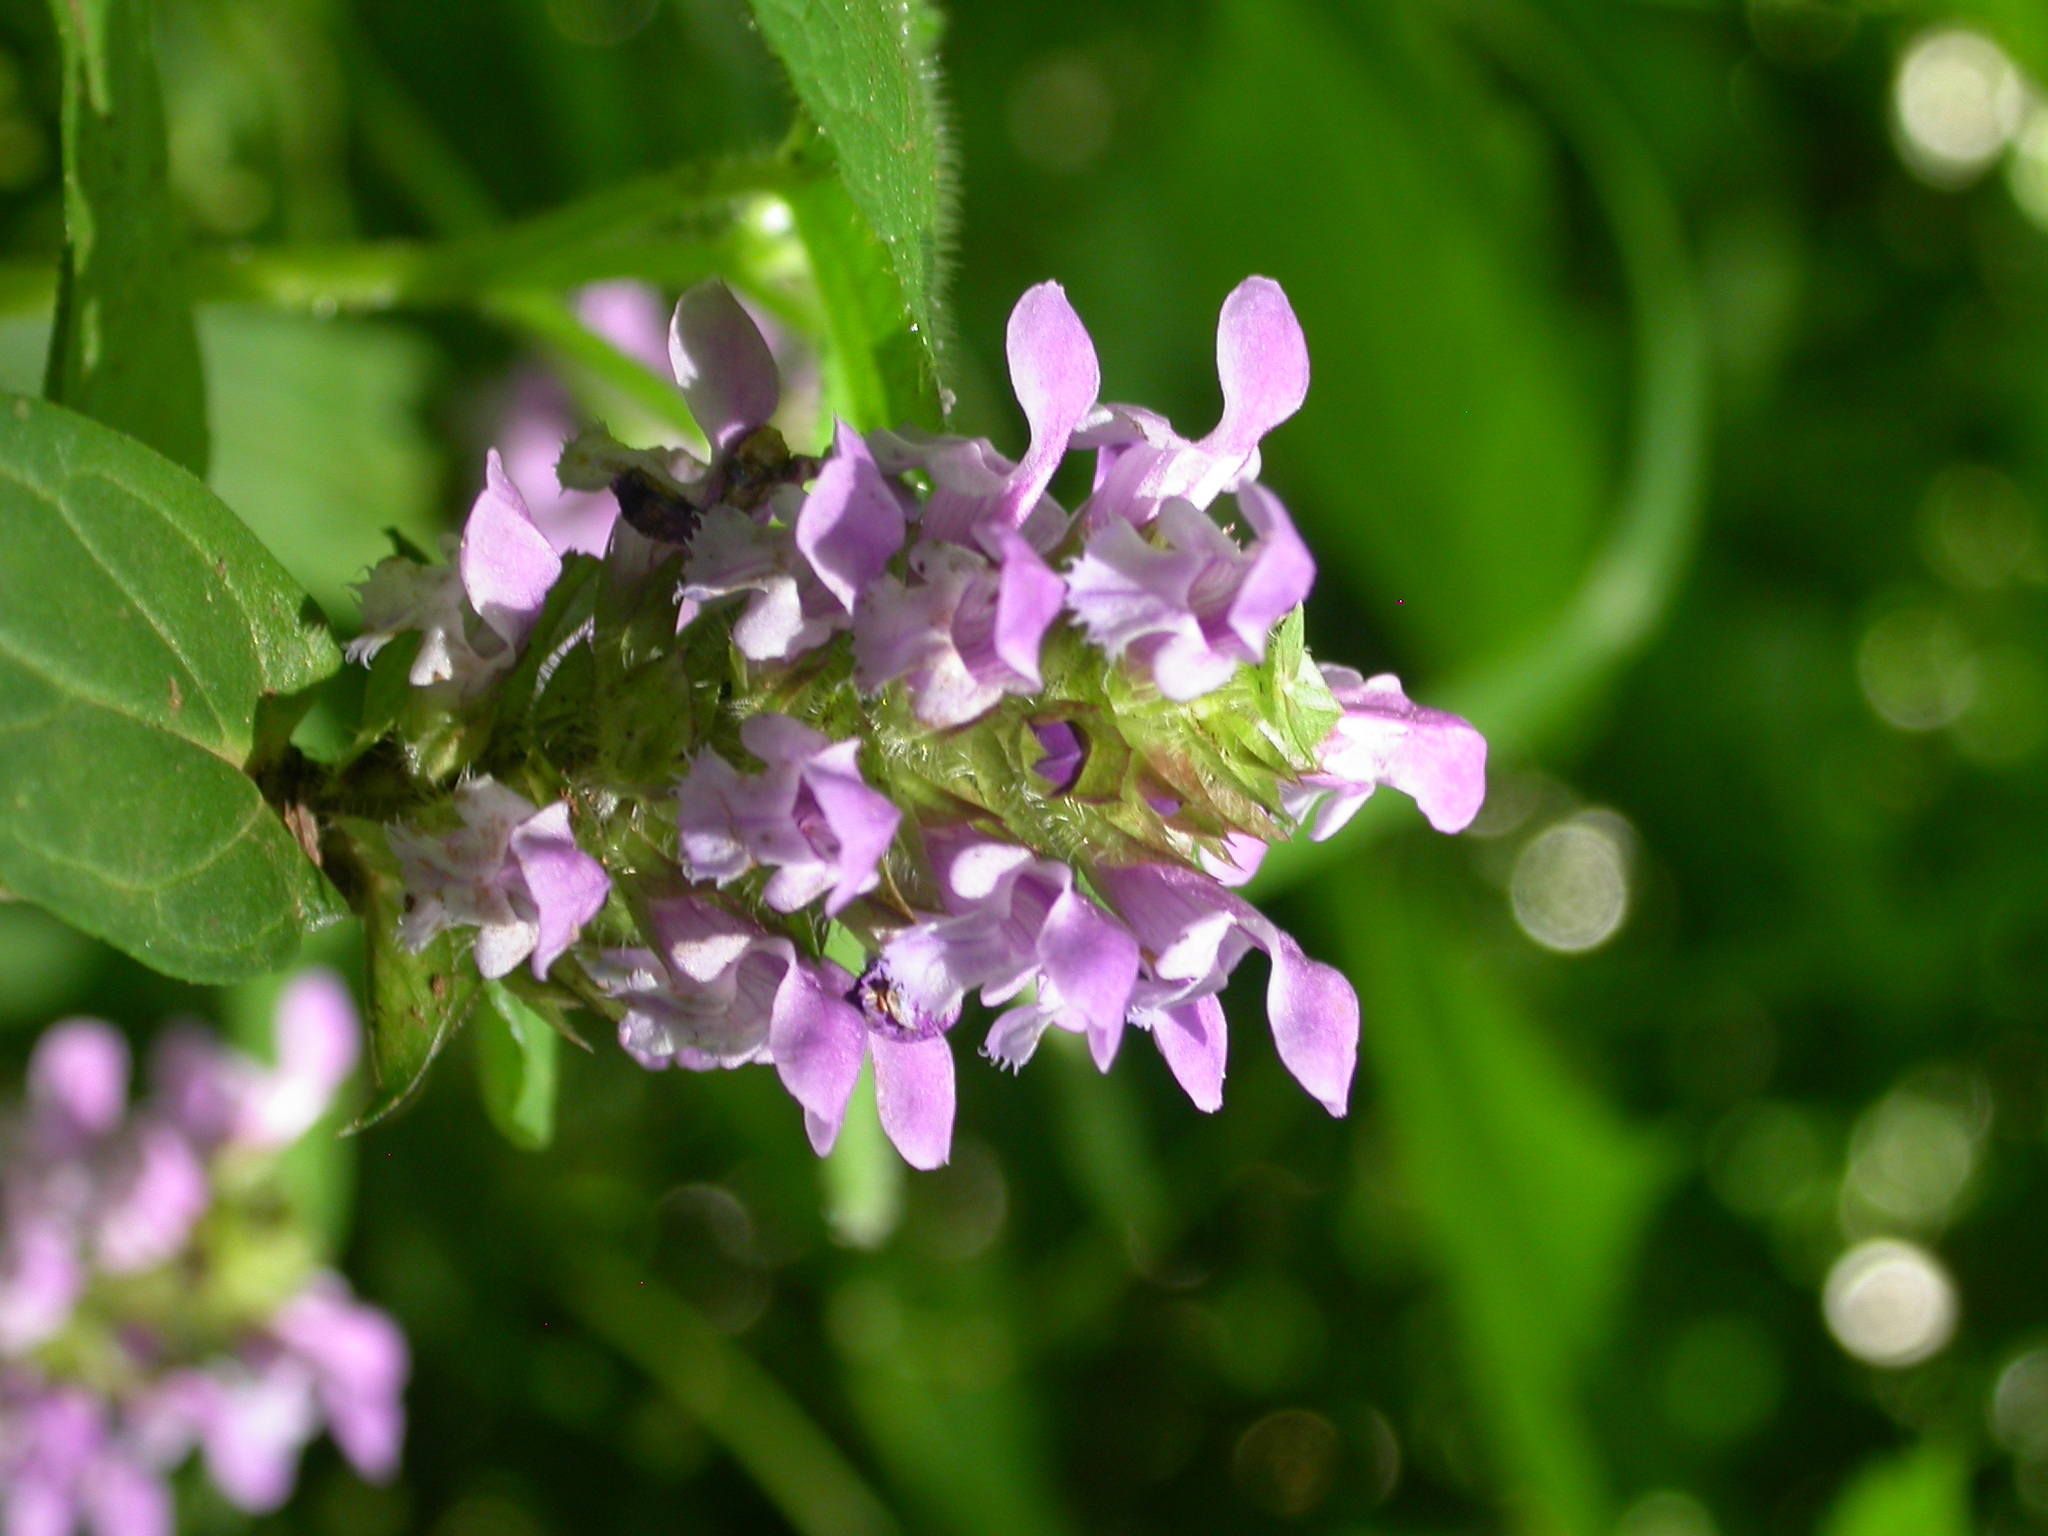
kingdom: Plantae
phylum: Tracheophyta
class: Magnoliopsida
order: Lamiales
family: Lamiaceae
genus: Prunella
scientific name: Prunella vulgaris
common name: Heal-all
